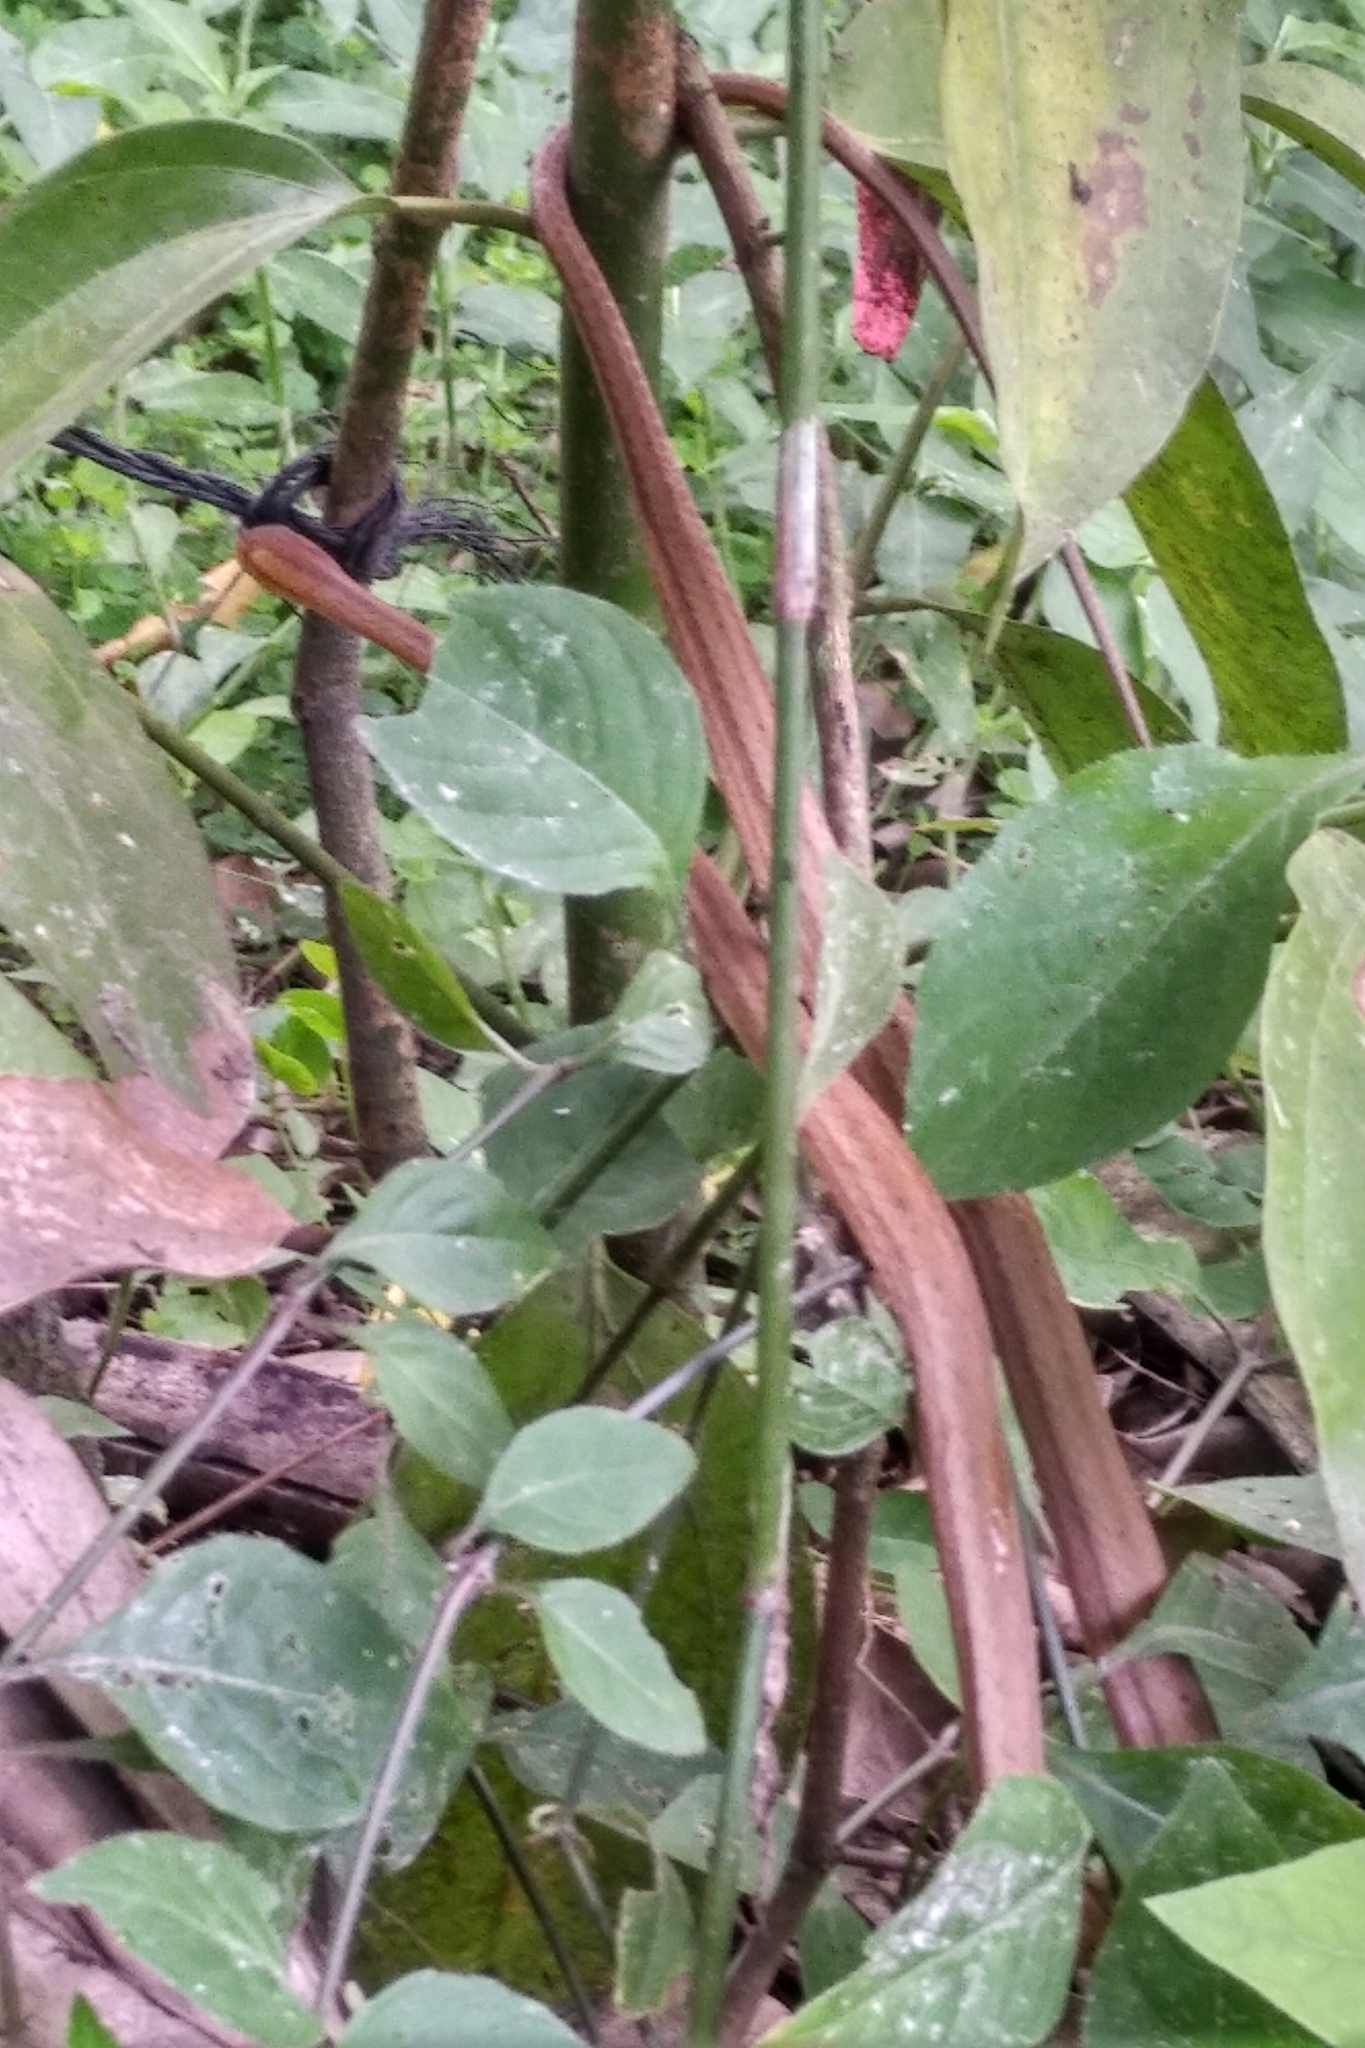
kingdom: Animalia
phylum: Chordata
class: Squamata
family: Colubridae
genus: Thamnodynastes
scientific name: Thamnodynastes pallidus
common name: Amazon coastal house snake
